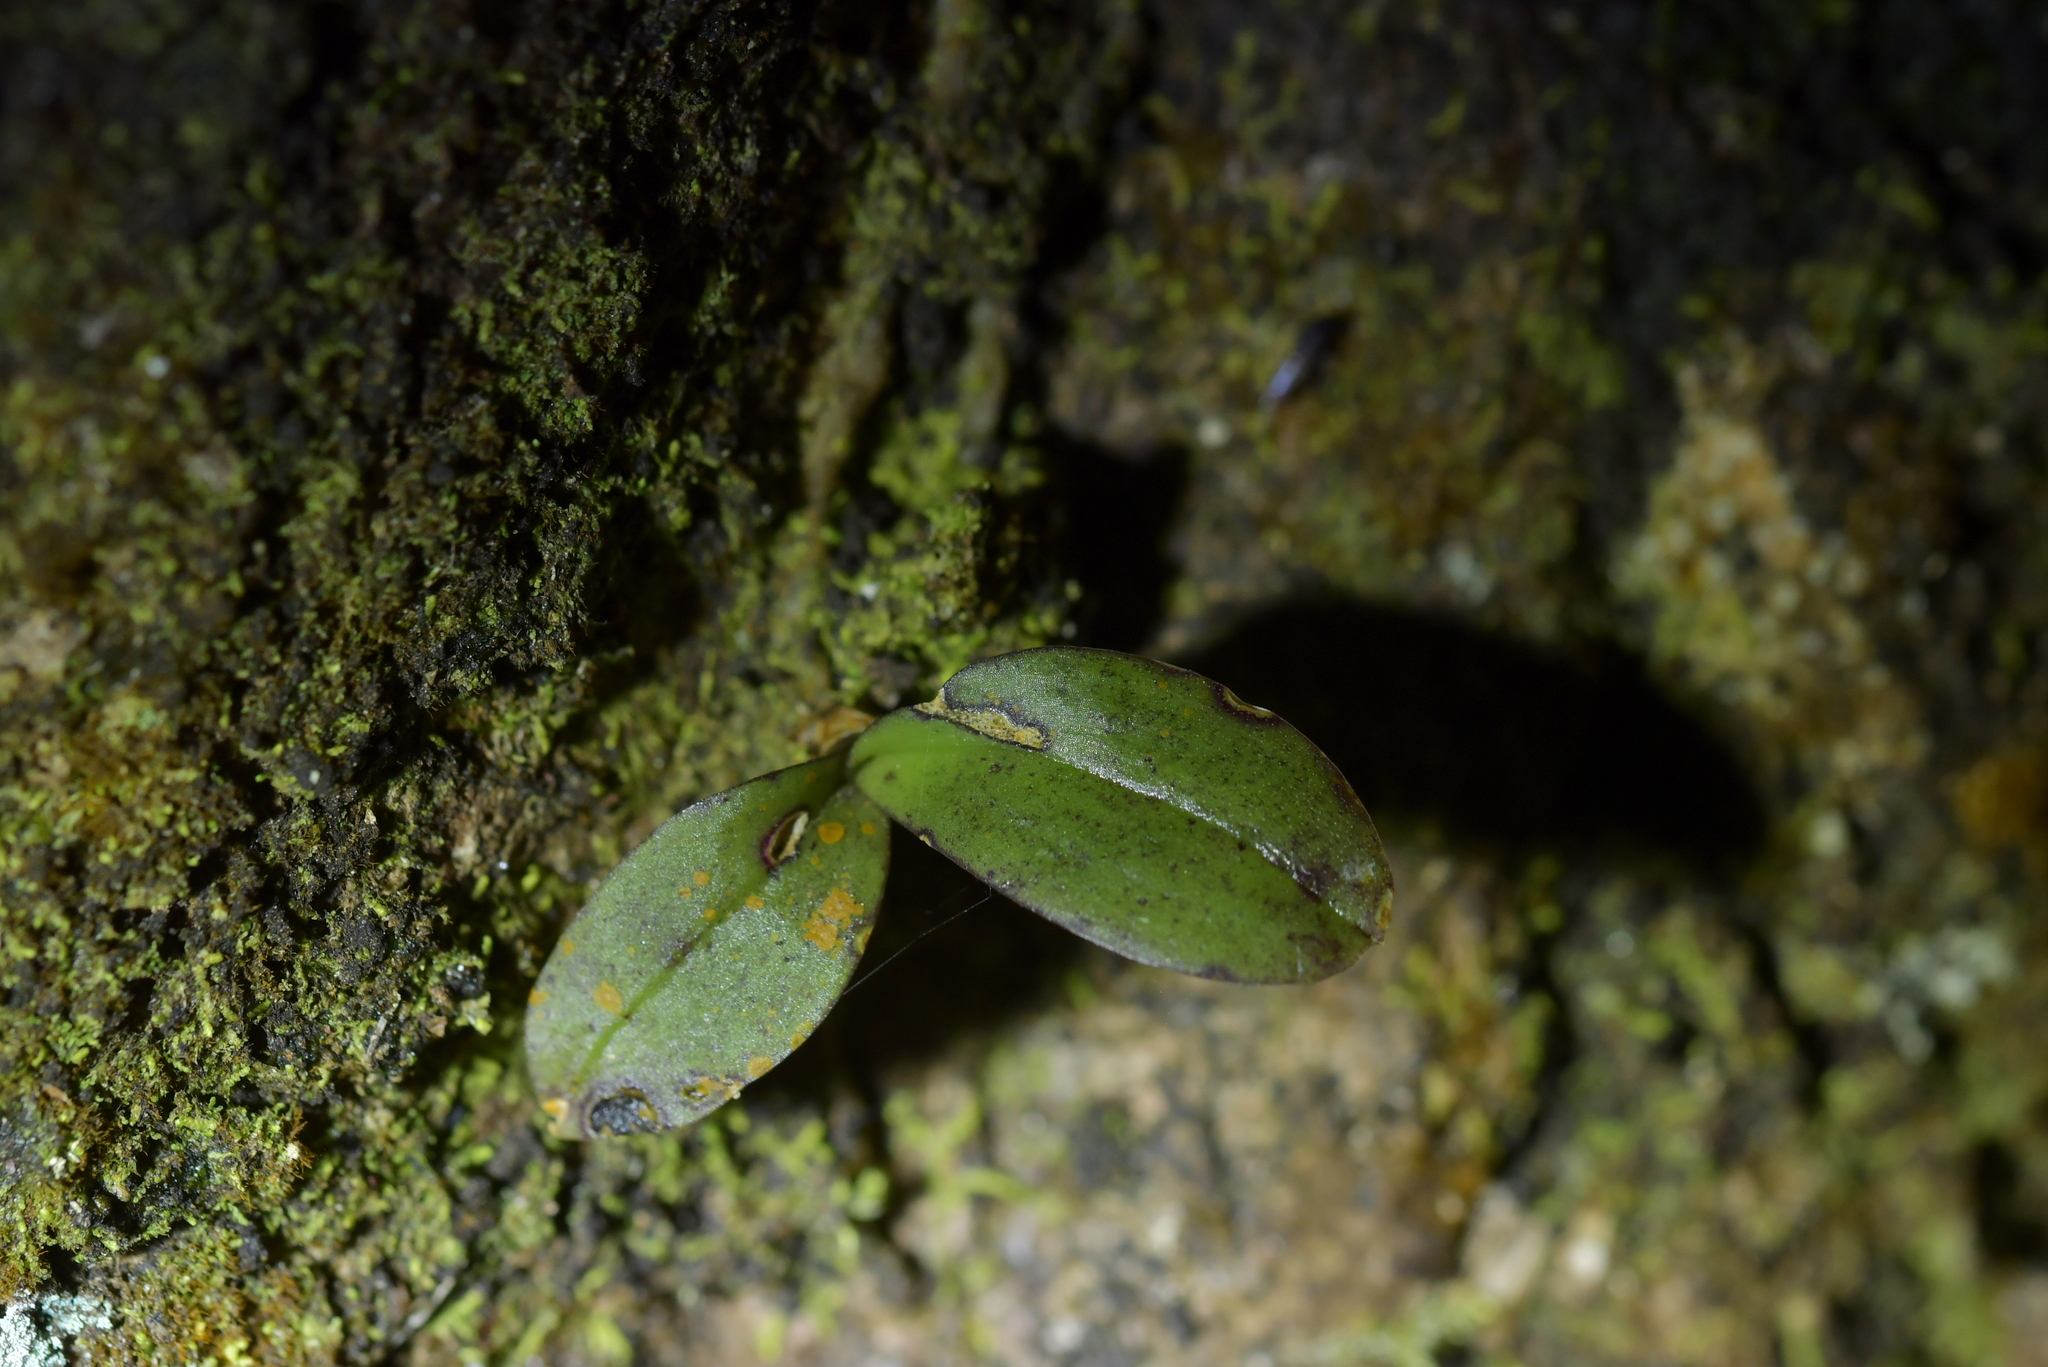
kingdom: Plantae
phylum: Tracheophyta
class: Liliopsida
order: Asparagales
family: Orchidaceae
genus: Drymoanthus
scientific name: Drymoanthus adversus
